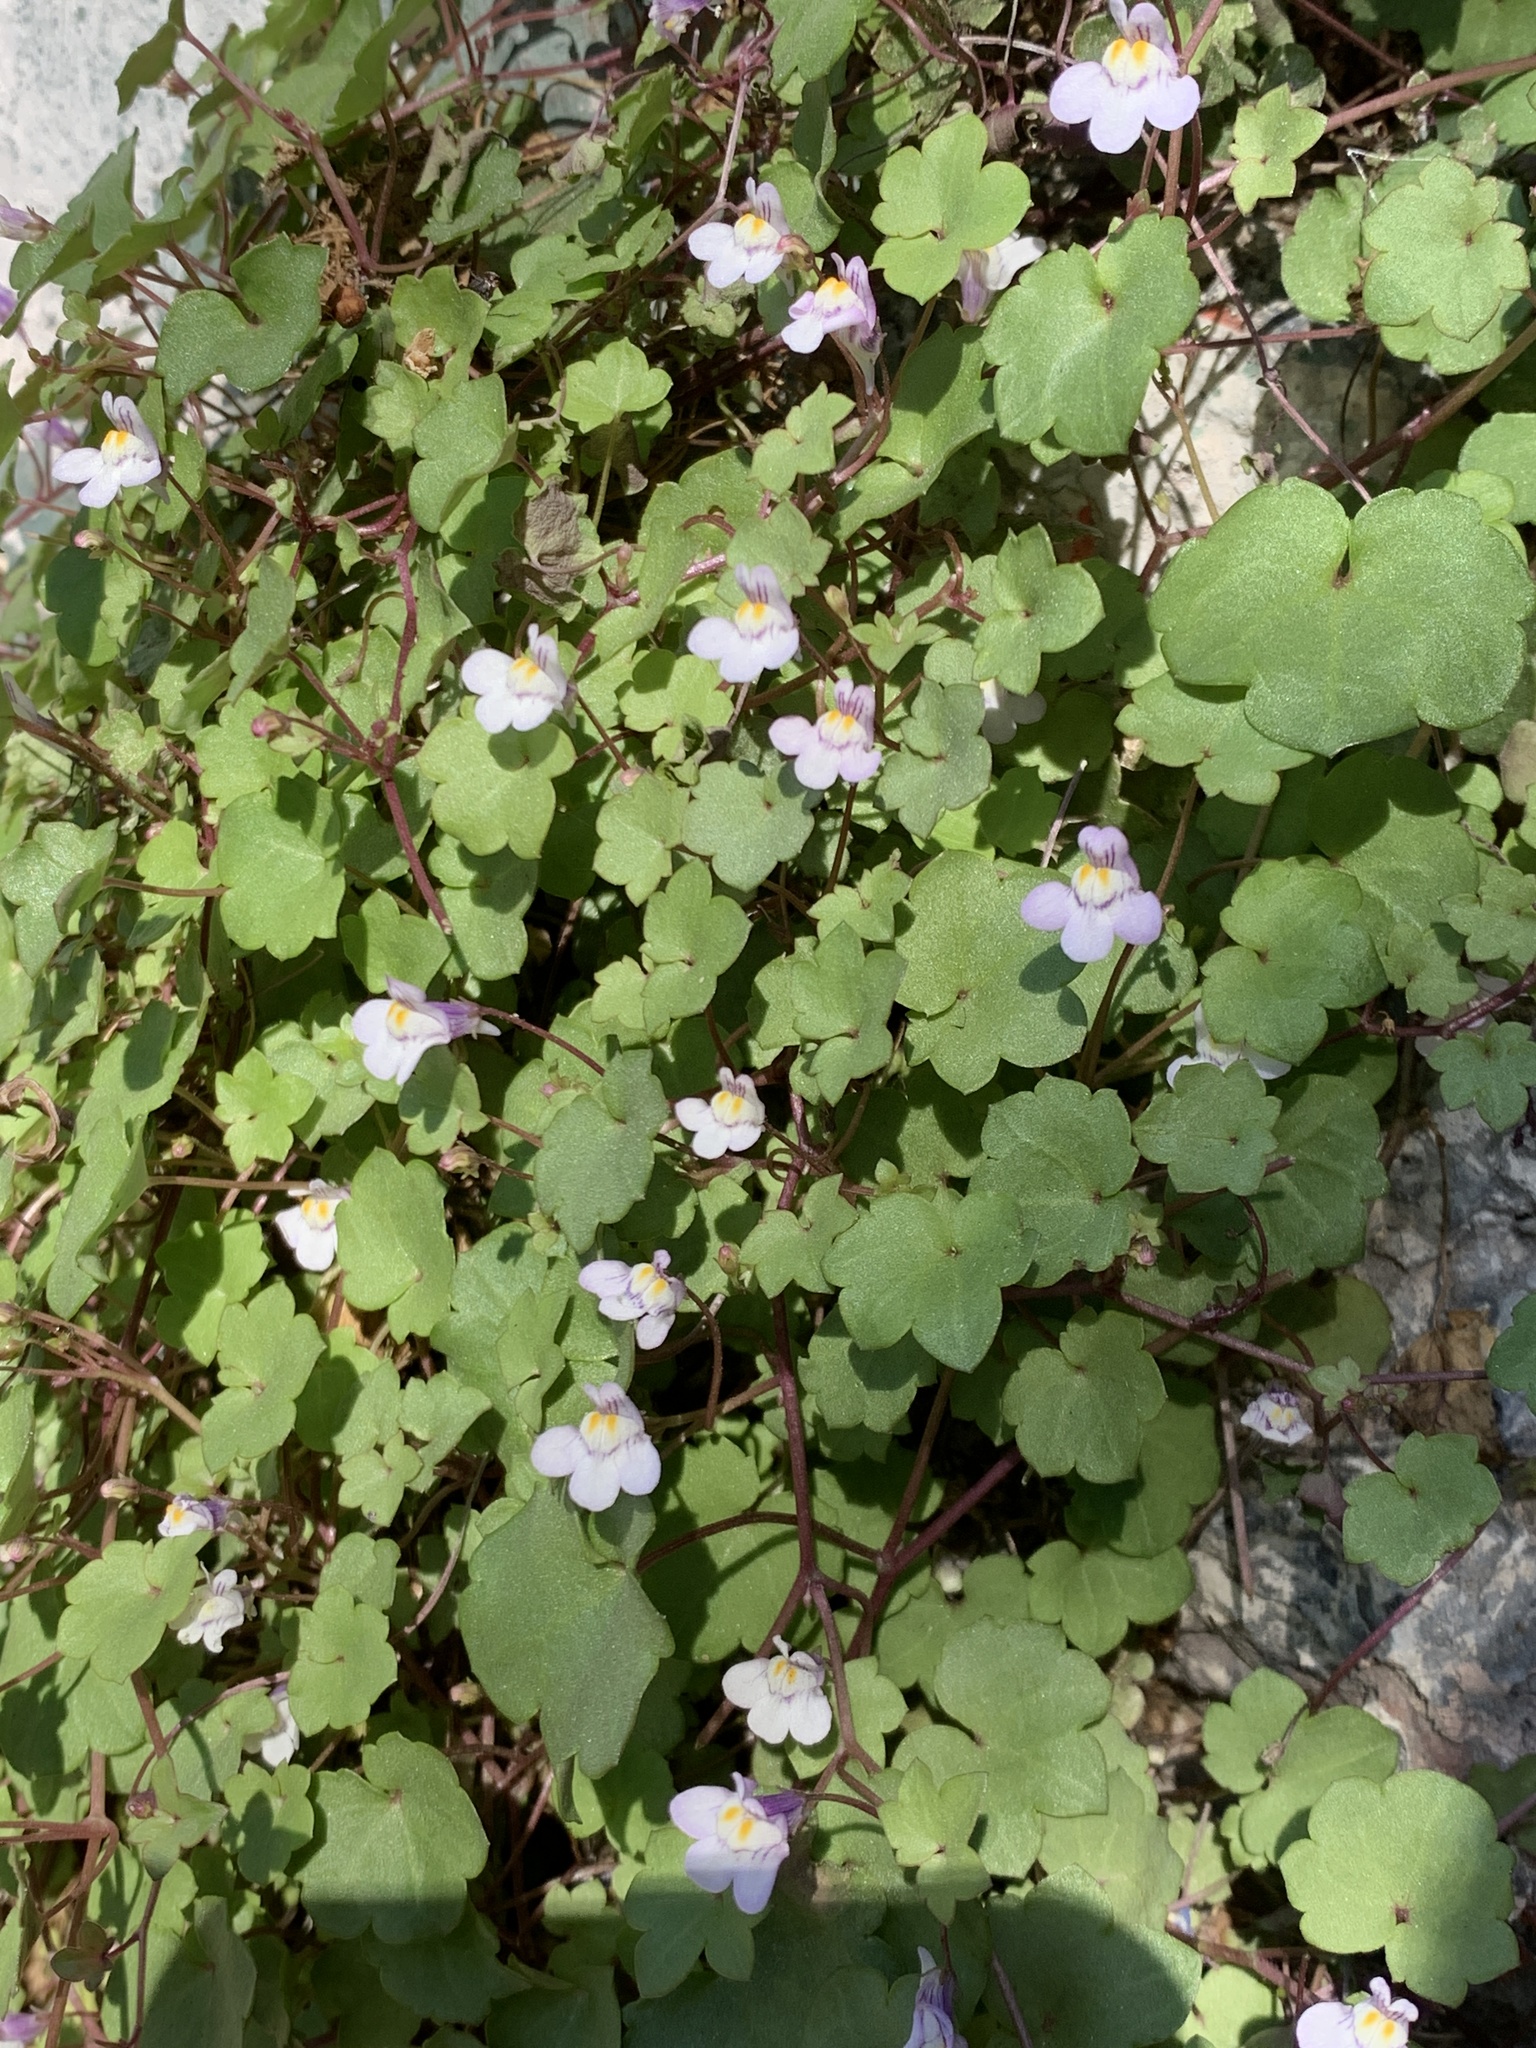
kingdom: Plantae
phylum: Tracheophyta
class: Magnoliopsida
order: Lamiales
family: Plantaginaceae
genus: Cymbalaria
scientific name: Cymbalaria muralis
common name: Ivy-leaved toadflax
